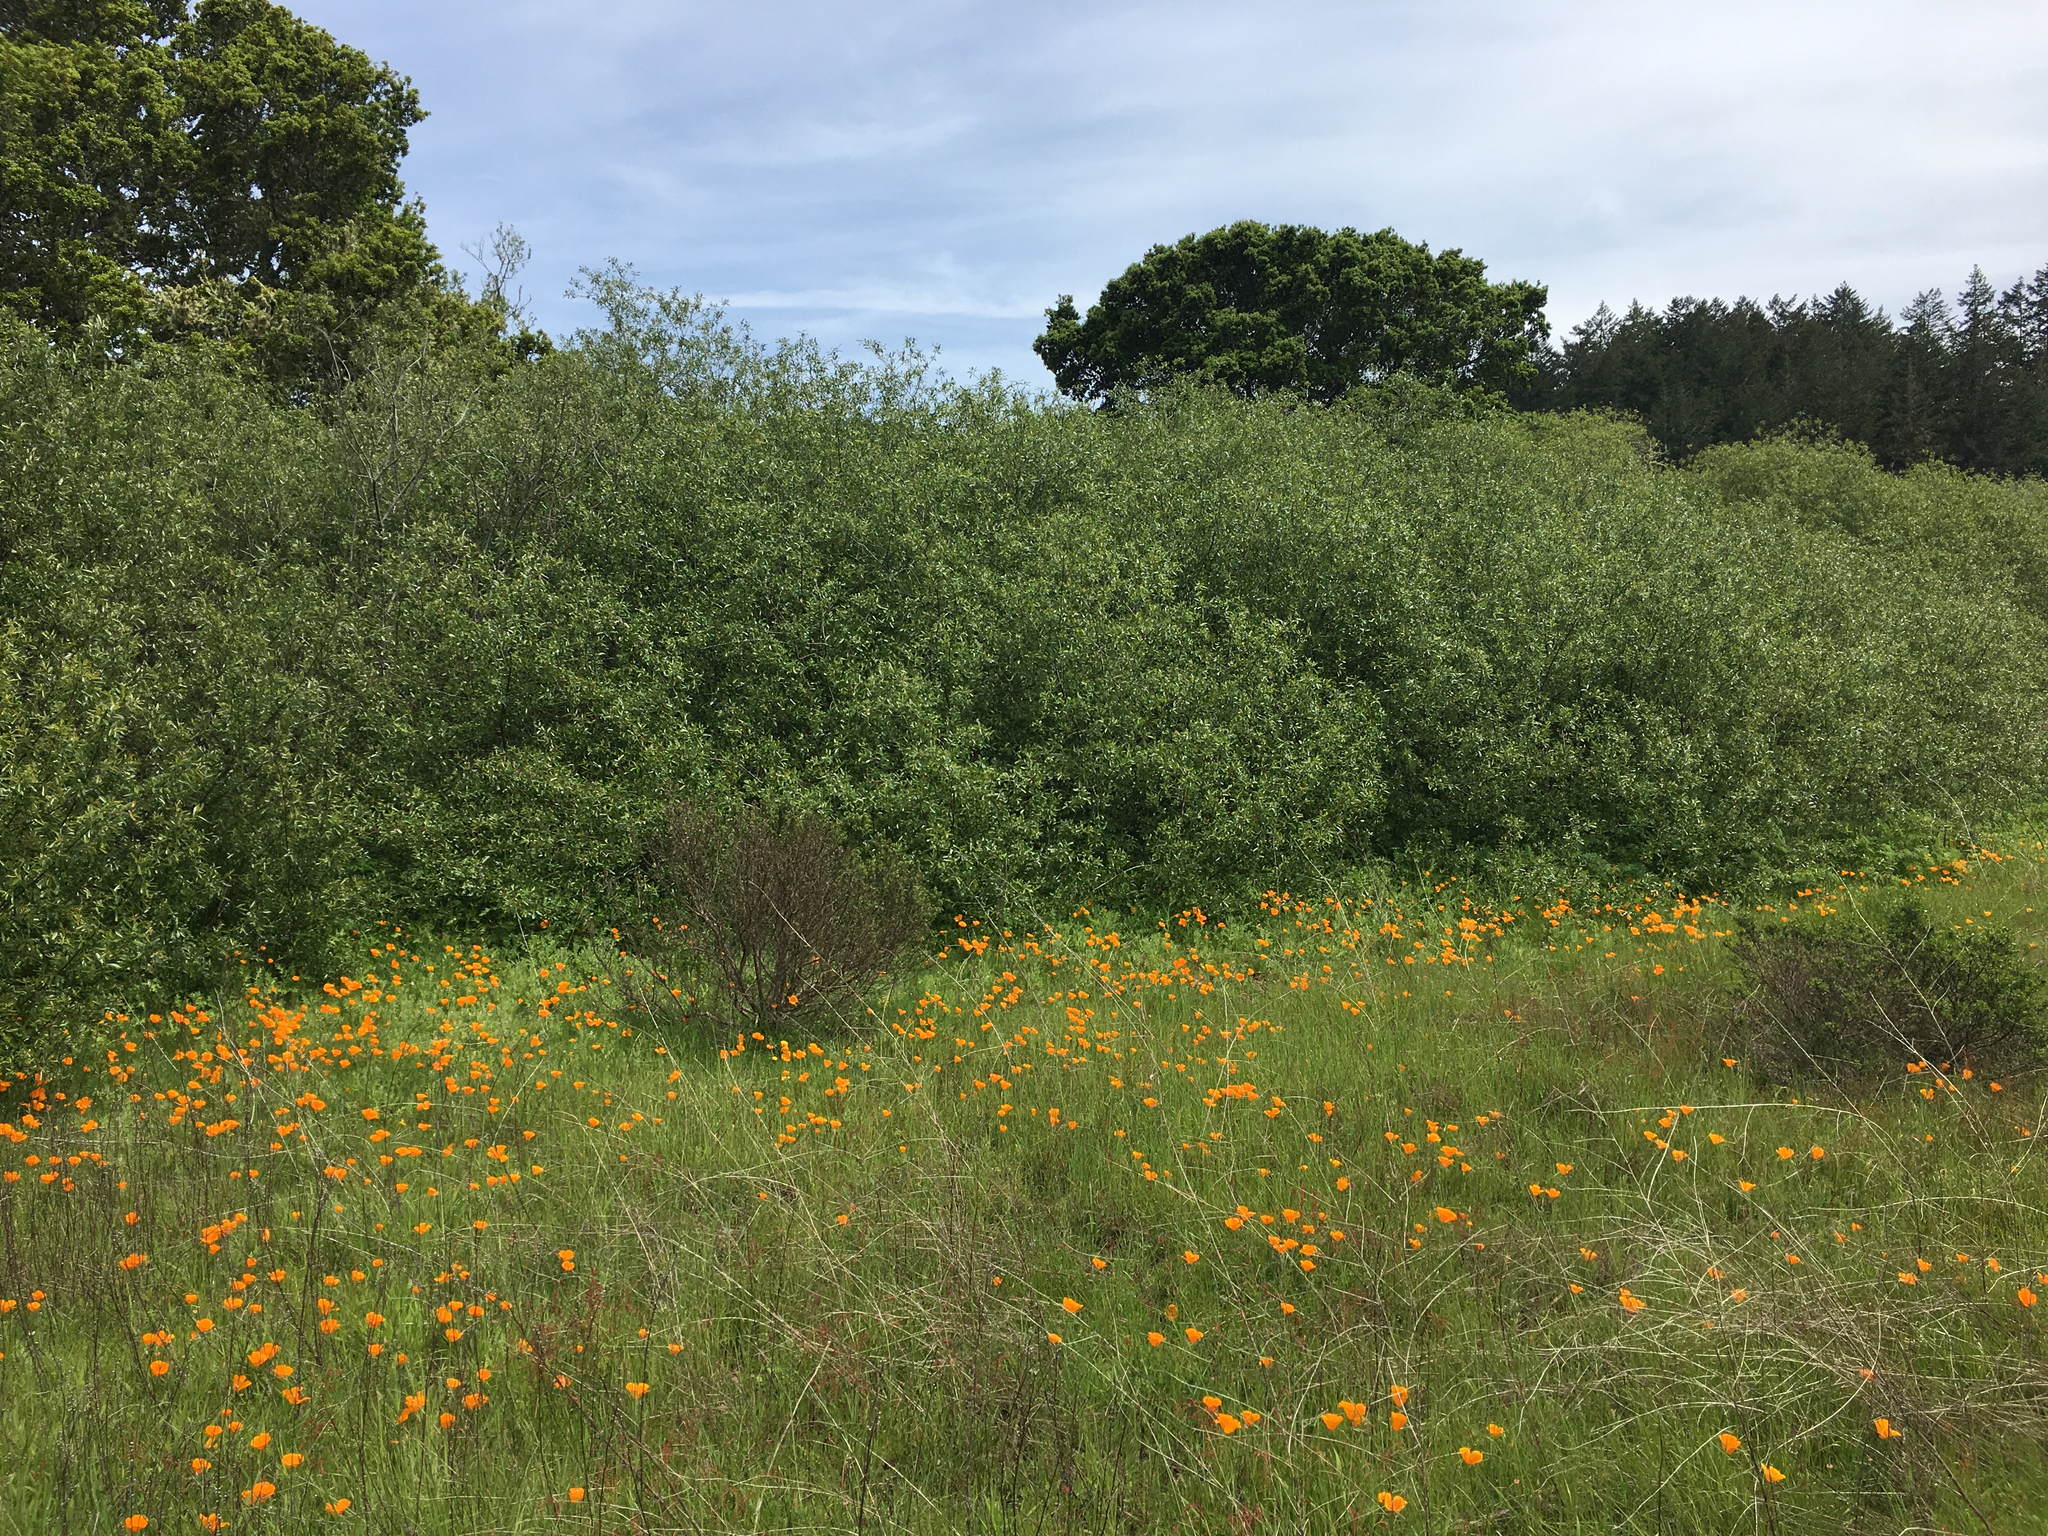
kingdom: Plantae
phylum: Tracheophyta
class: Magnoliopsida
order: Ranunculales
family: Papaveraceae
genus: Eschscholzia
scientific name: Eschscholzia californica
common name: California poppy
